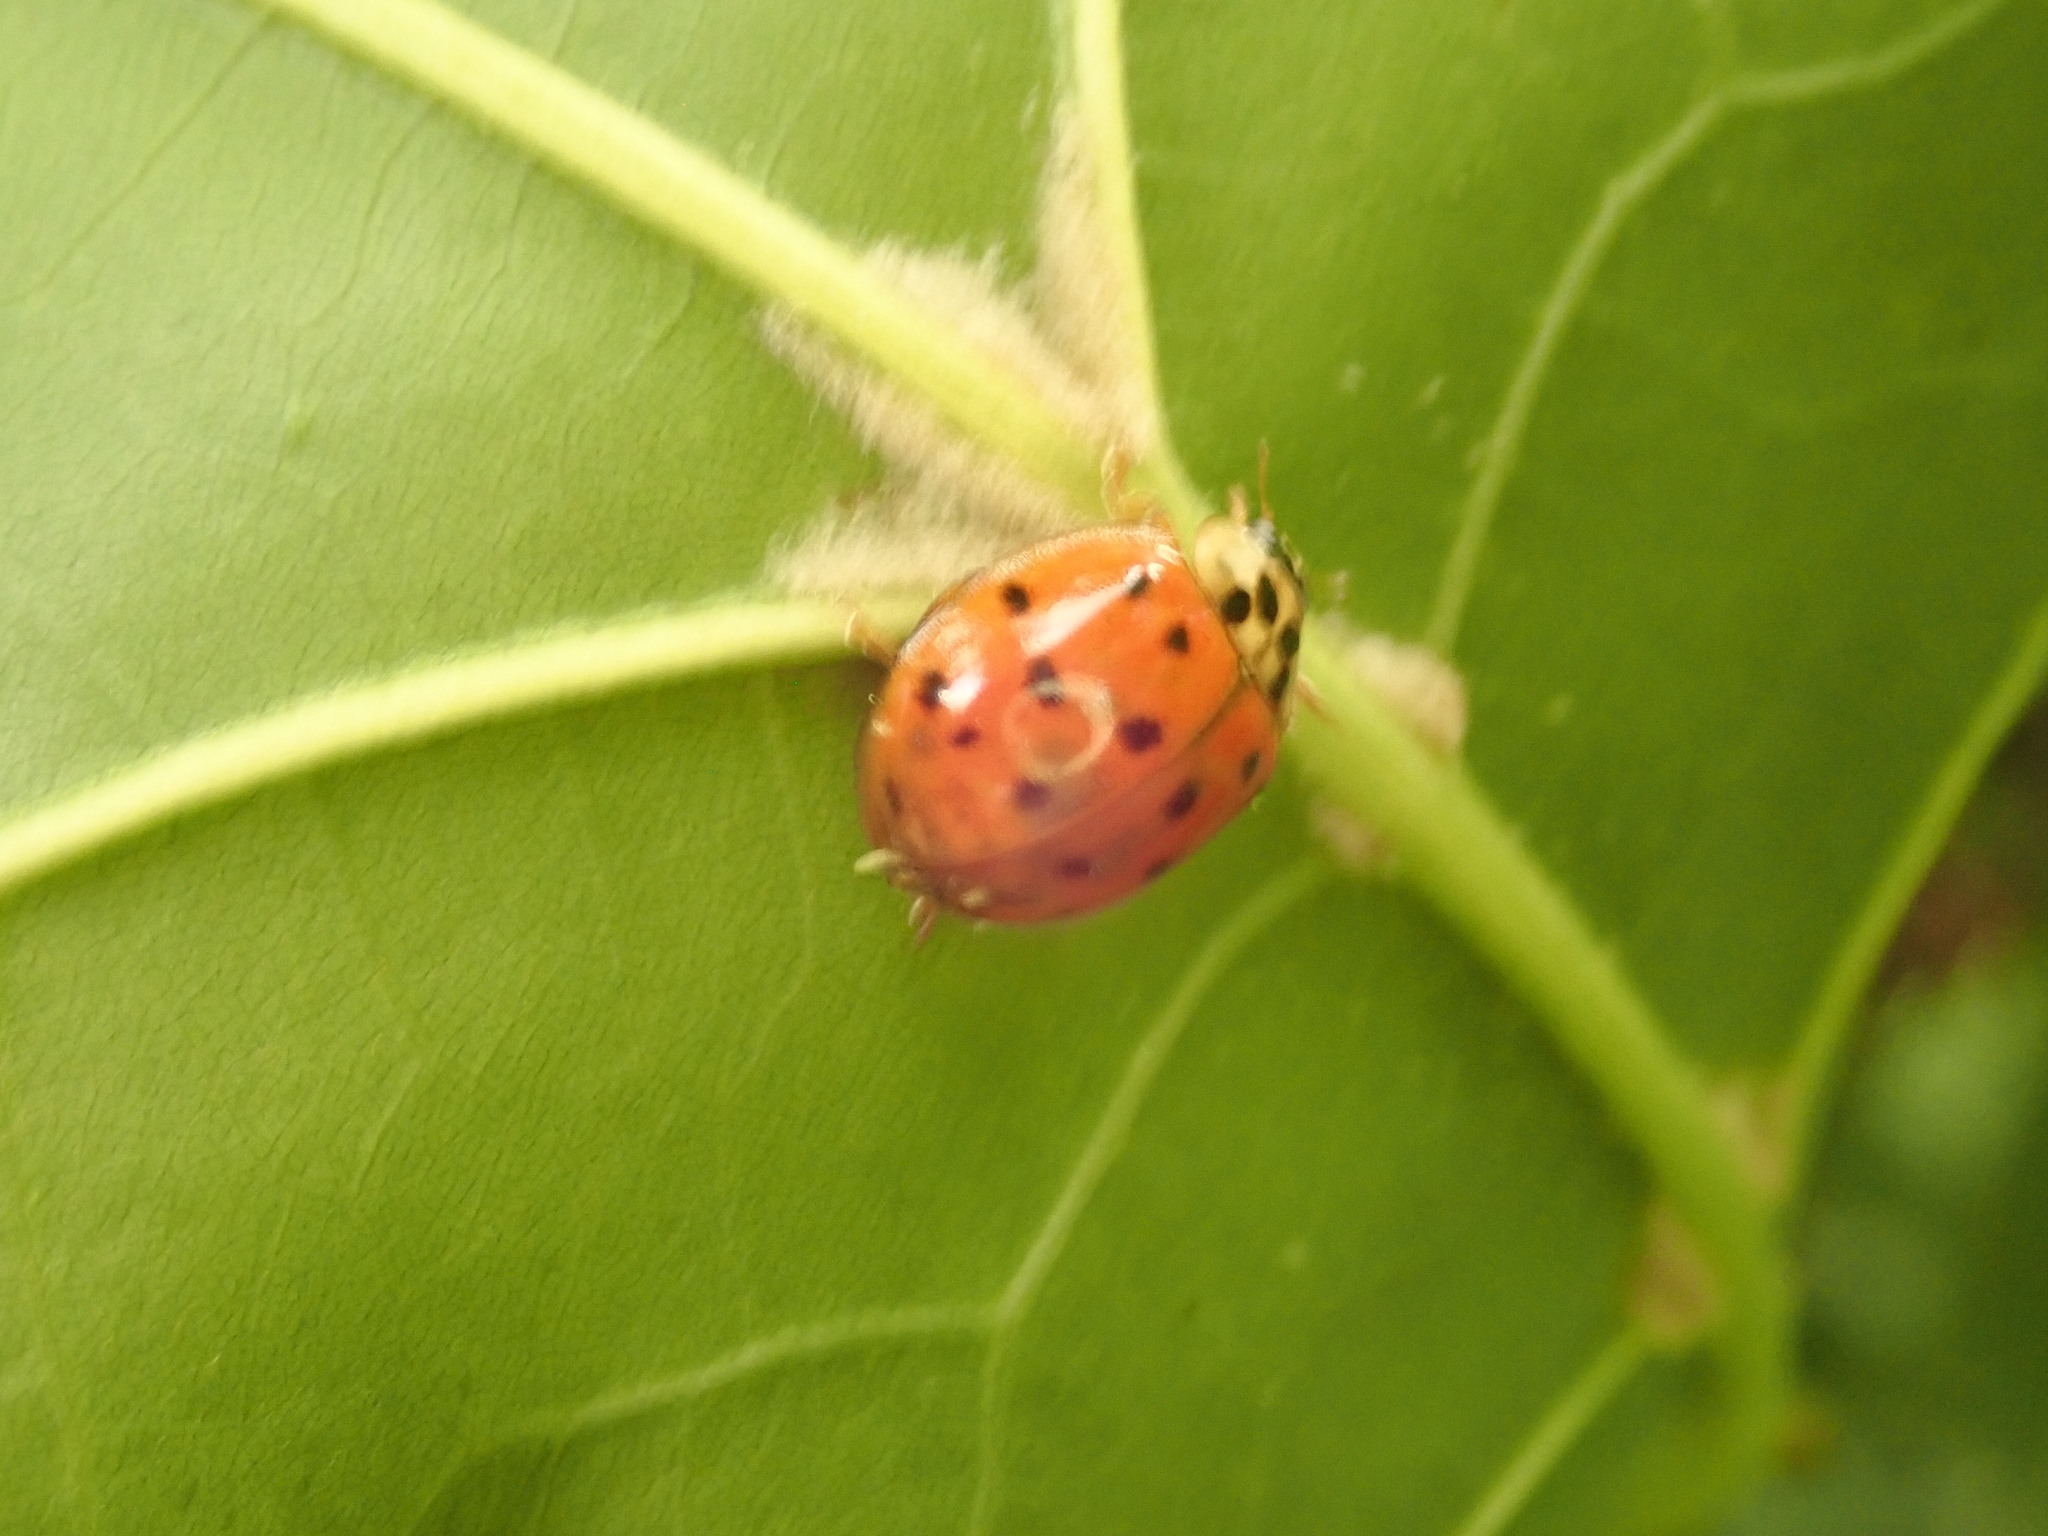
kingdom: Animalia
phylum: Arthropoda
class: Insecta
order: Coleoptera
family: Coccinellidae
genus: Harmonia
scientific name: Harmonia axyridis
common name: Harlequin ladybird
